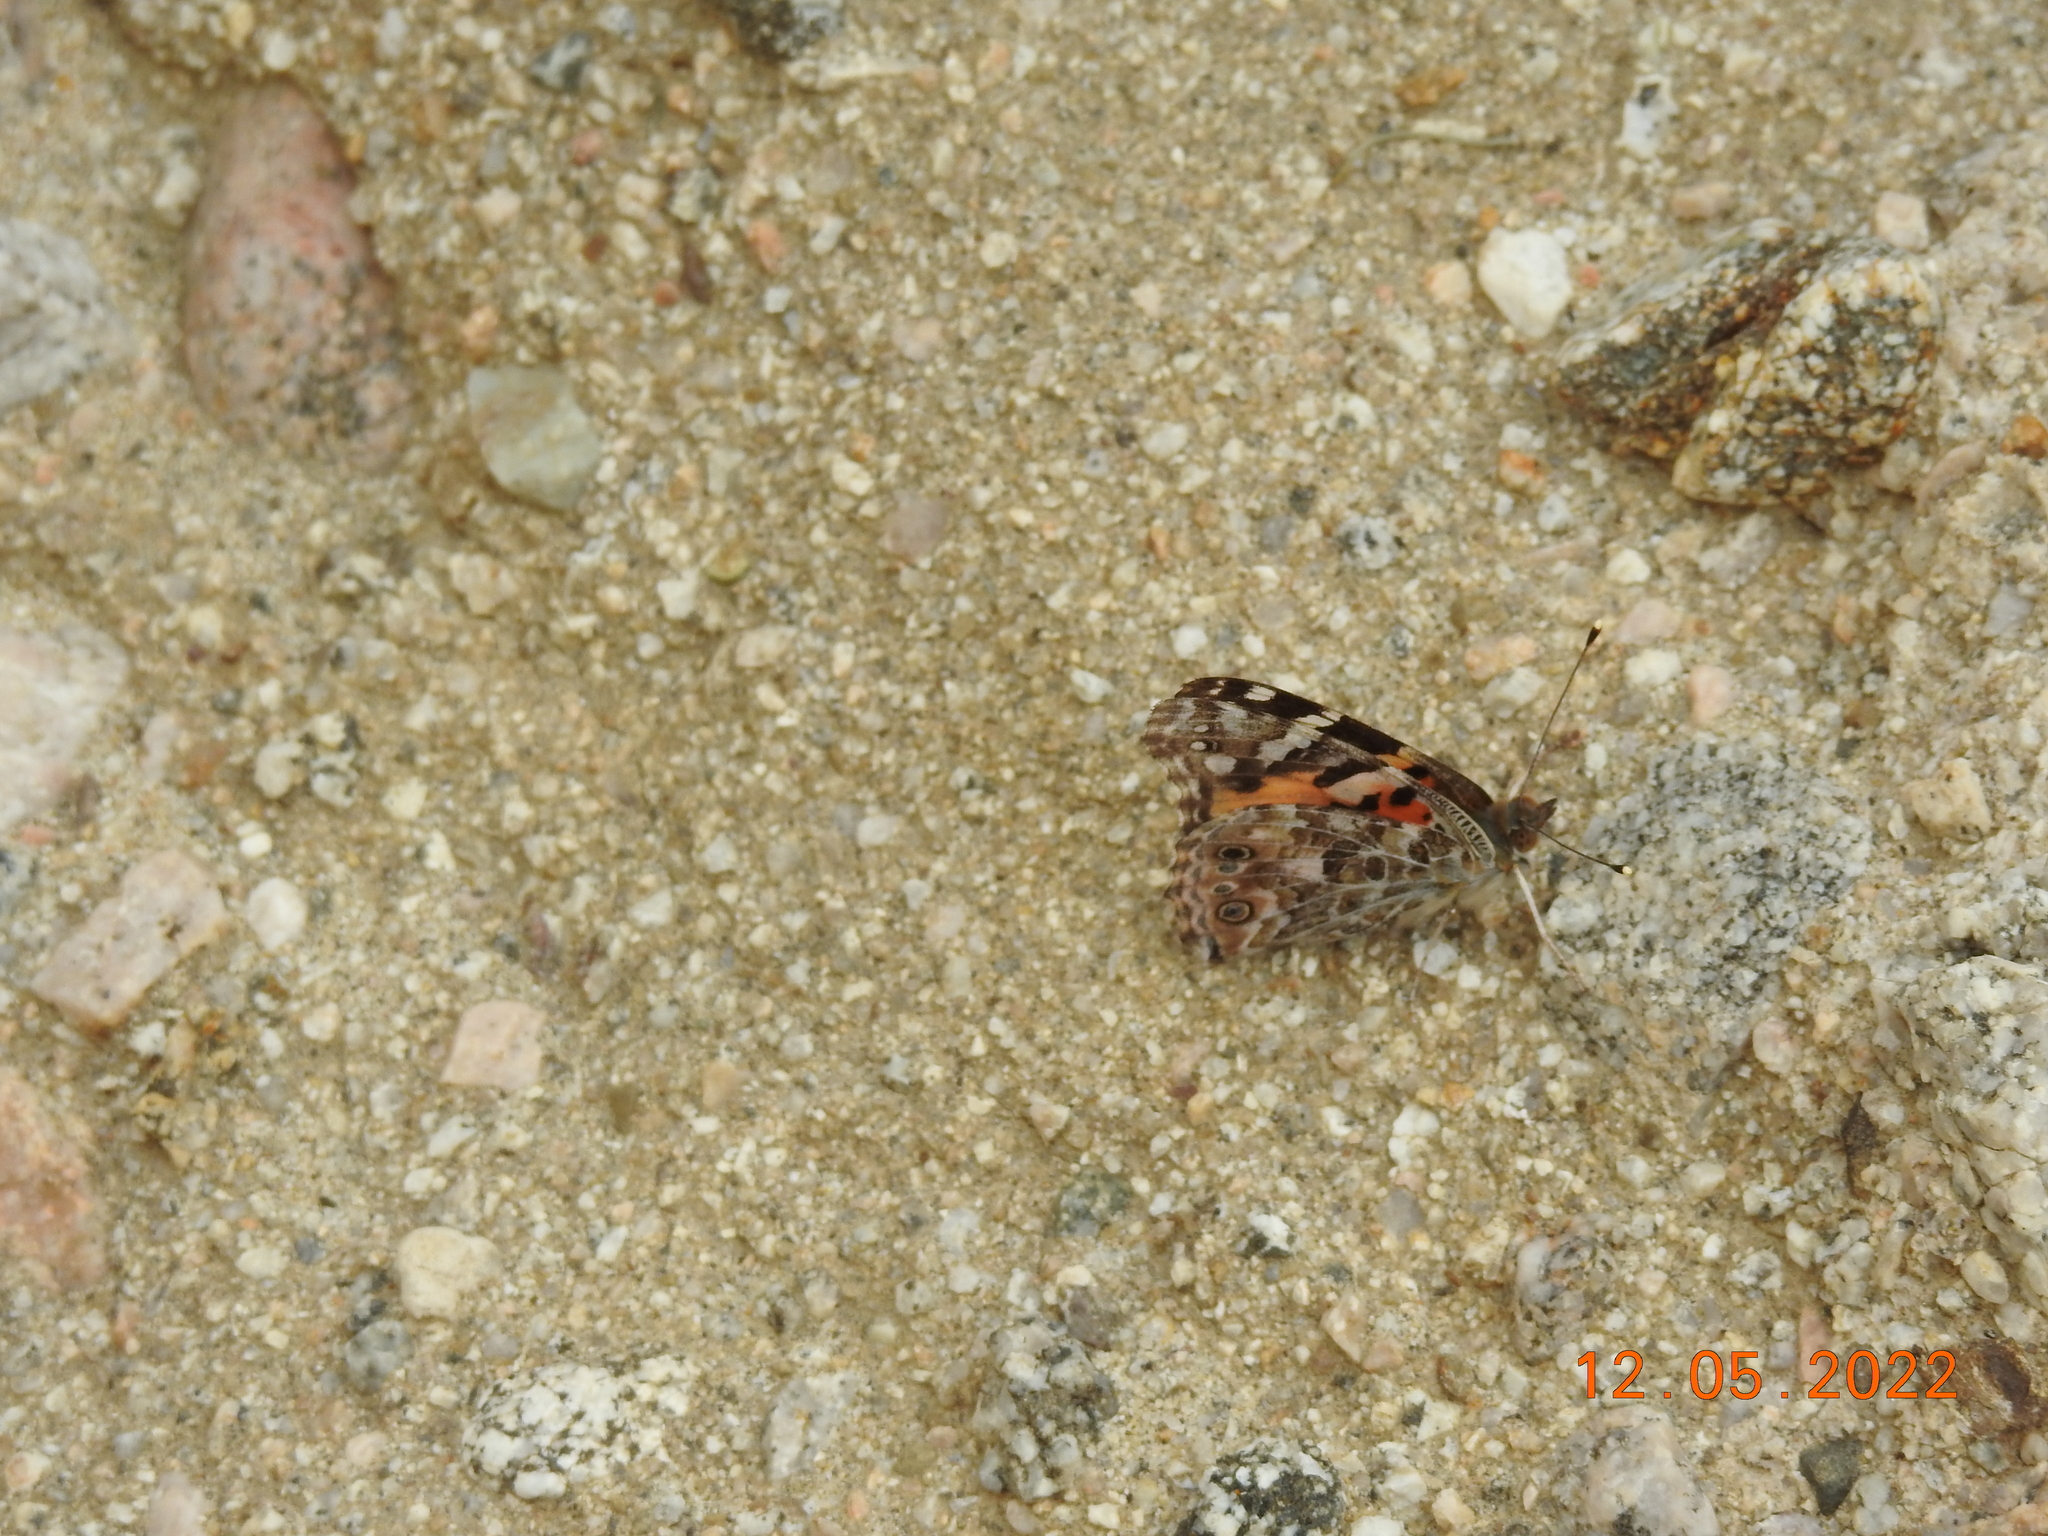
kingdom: Animalia
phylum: Arthropoda
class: Insecta
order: Lepidoptera
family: Nymphalidae
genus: Vanessa
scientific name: Vanessa cardui
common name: Painted lady
